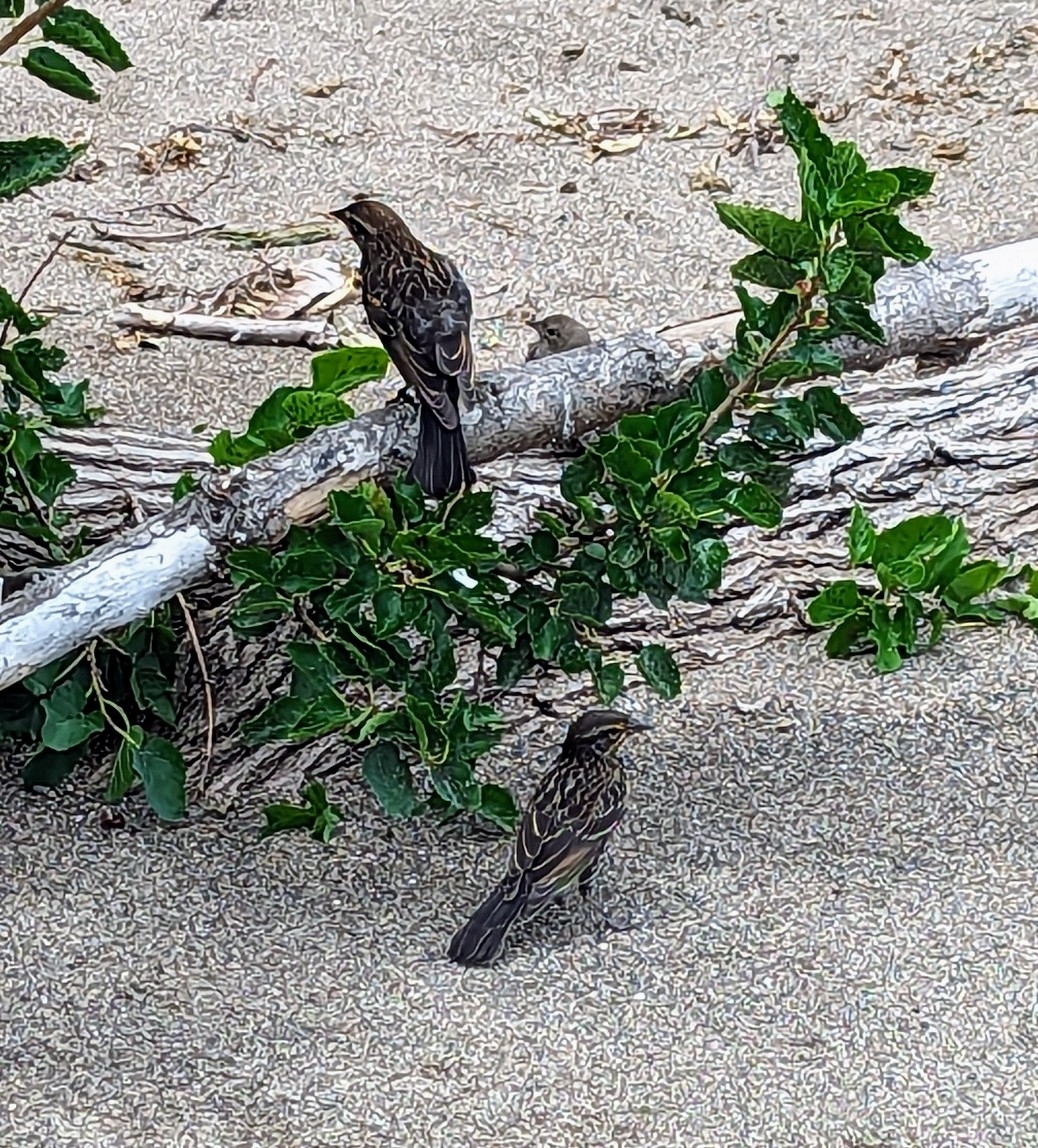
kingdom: Animalia
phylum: Chordata
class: Aves
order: Passeriformes
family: Icteridae
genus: Agelaius
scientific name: Agelaius phoeniceus
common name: Red-winged blackbird
